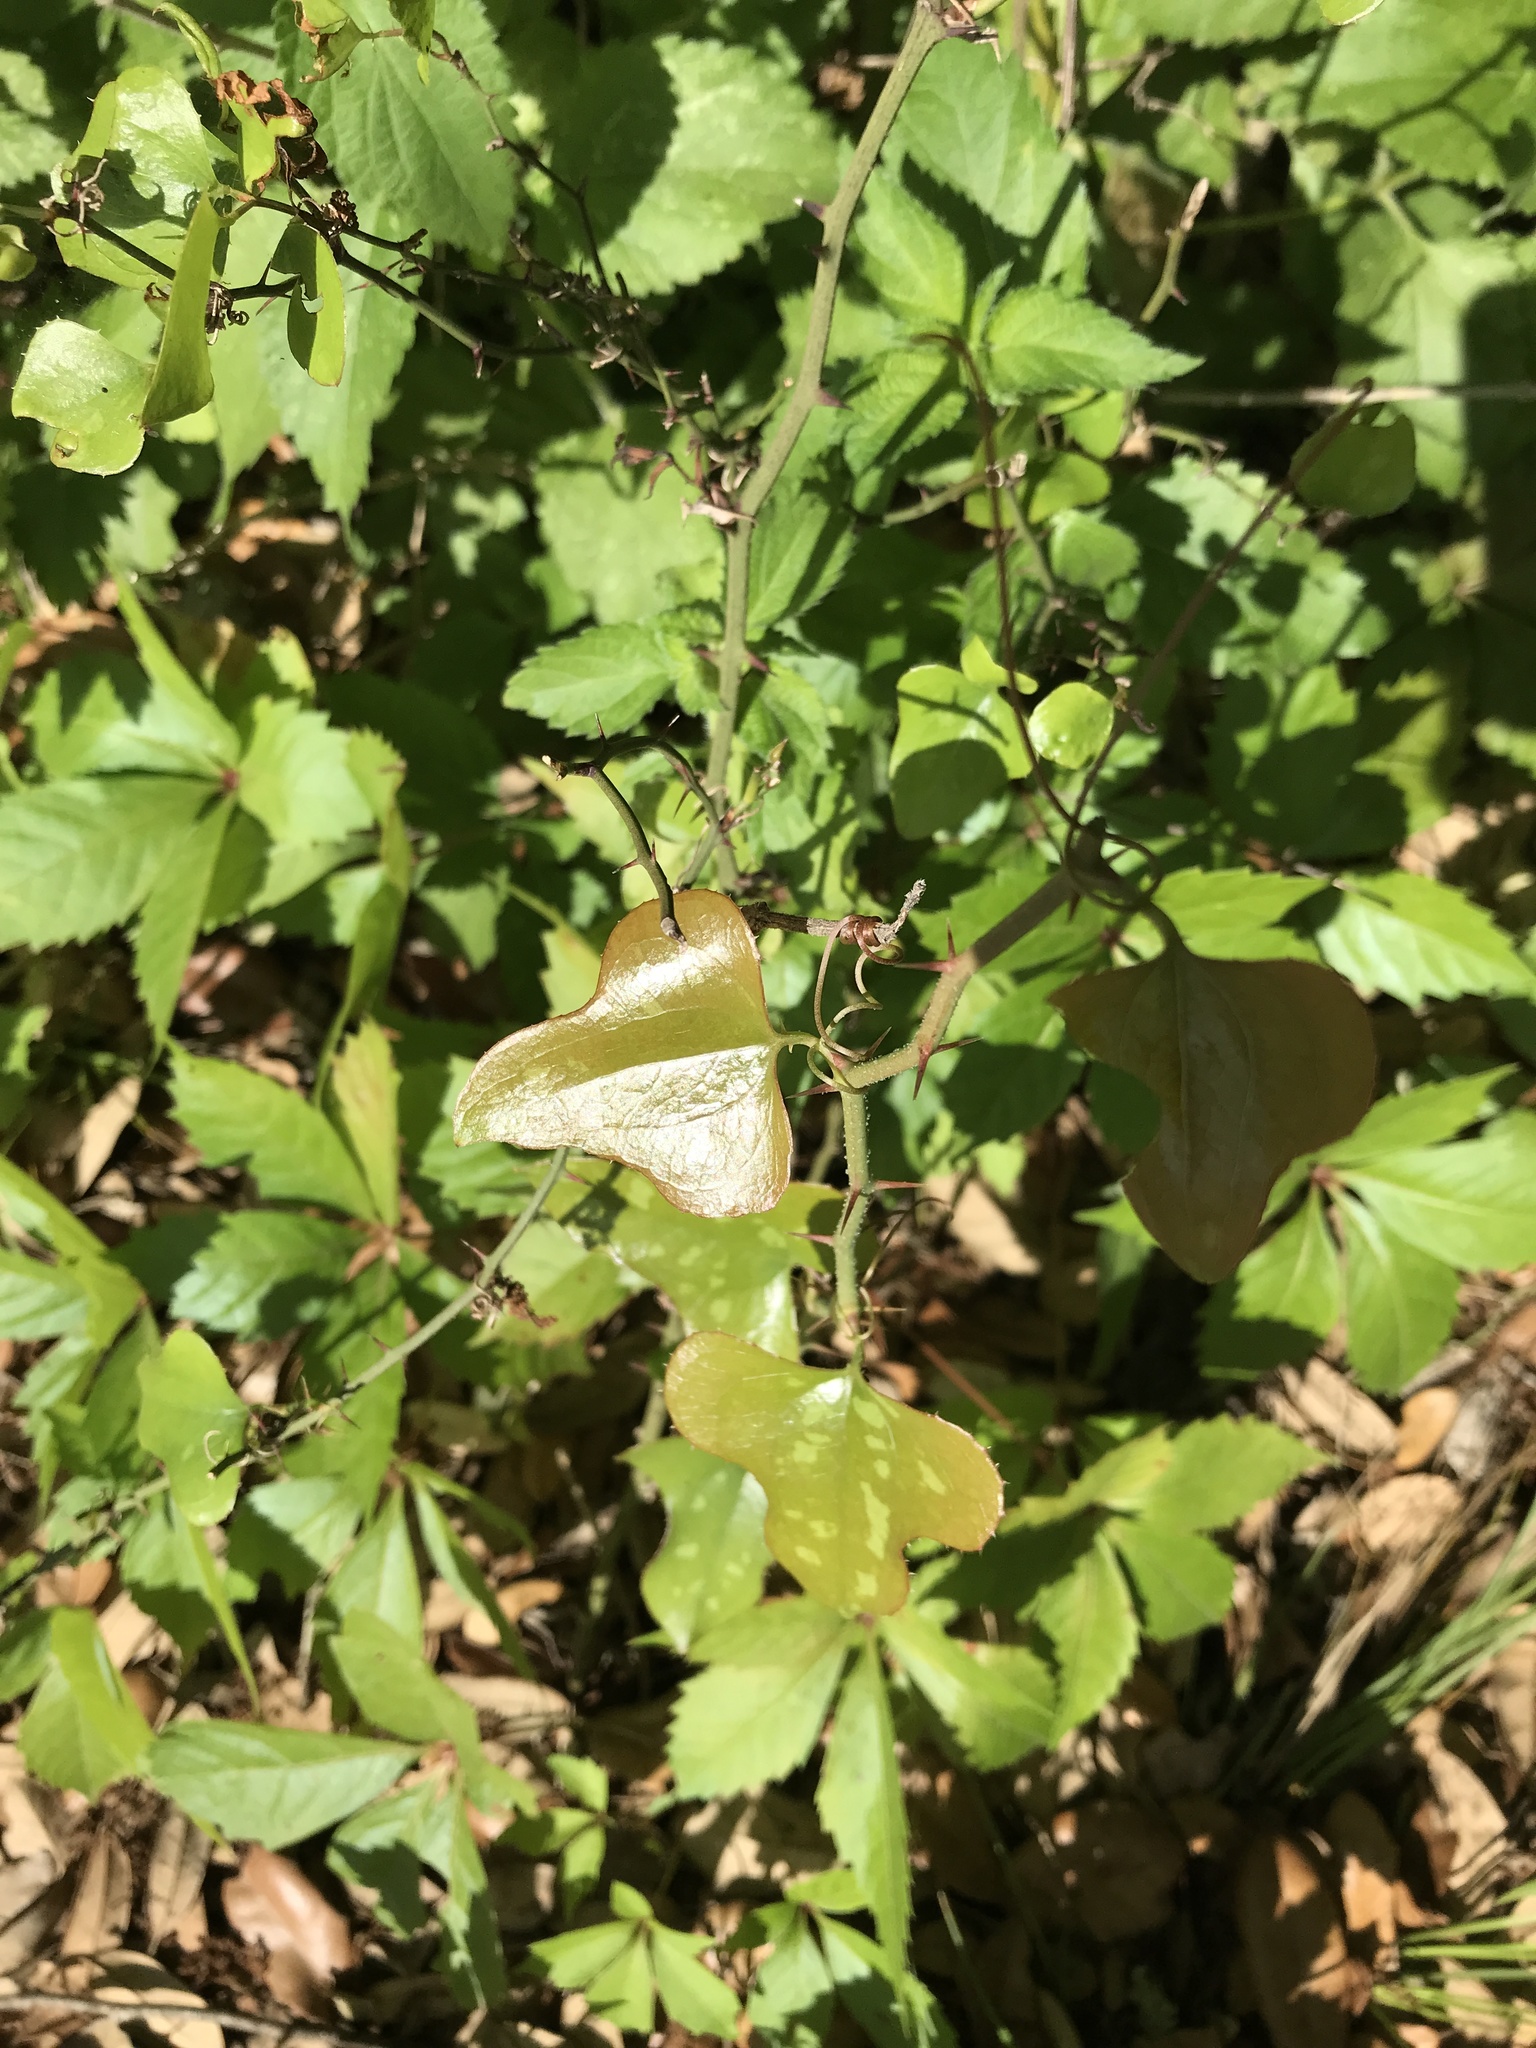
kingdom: Plantae
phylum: Tracheophyta
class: Liliopsida
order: Liliales
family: Smilacaceae
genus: Smilax
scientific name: Smilax bona-nox
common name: Catbrier
